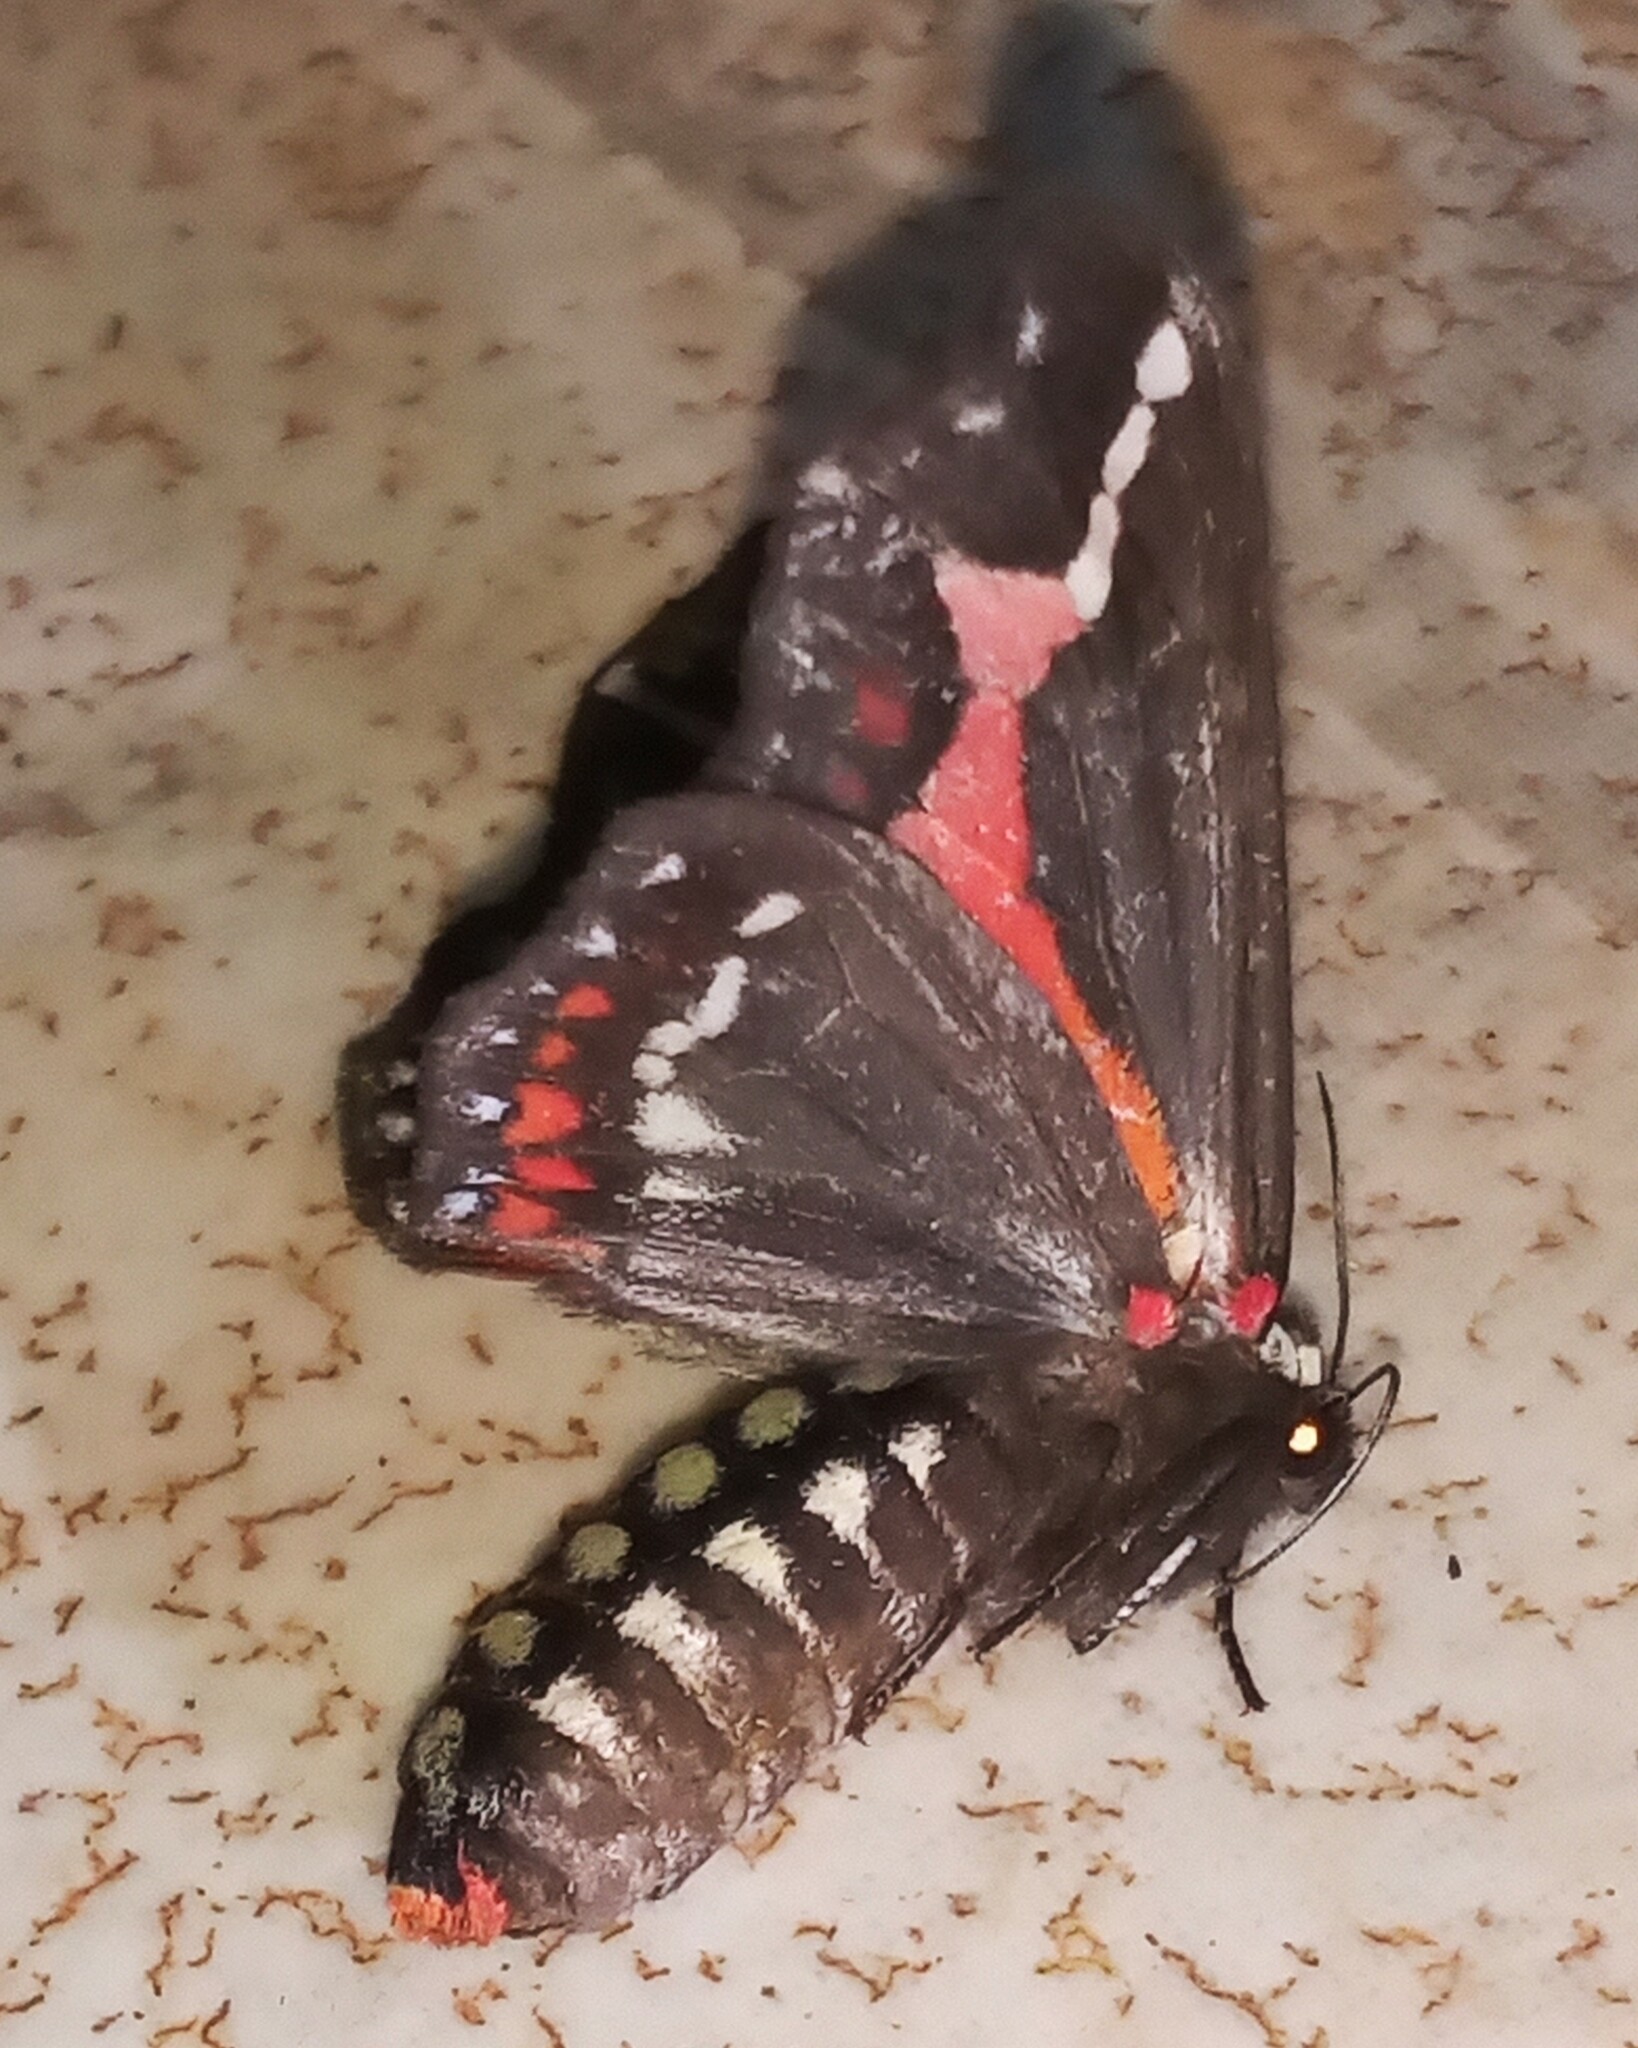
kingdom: Animalia
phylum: Arthropoda
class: Insecta
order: Lepidoptera
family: Erebidae
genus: Dysschema
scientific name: Dysschema sacrifica
